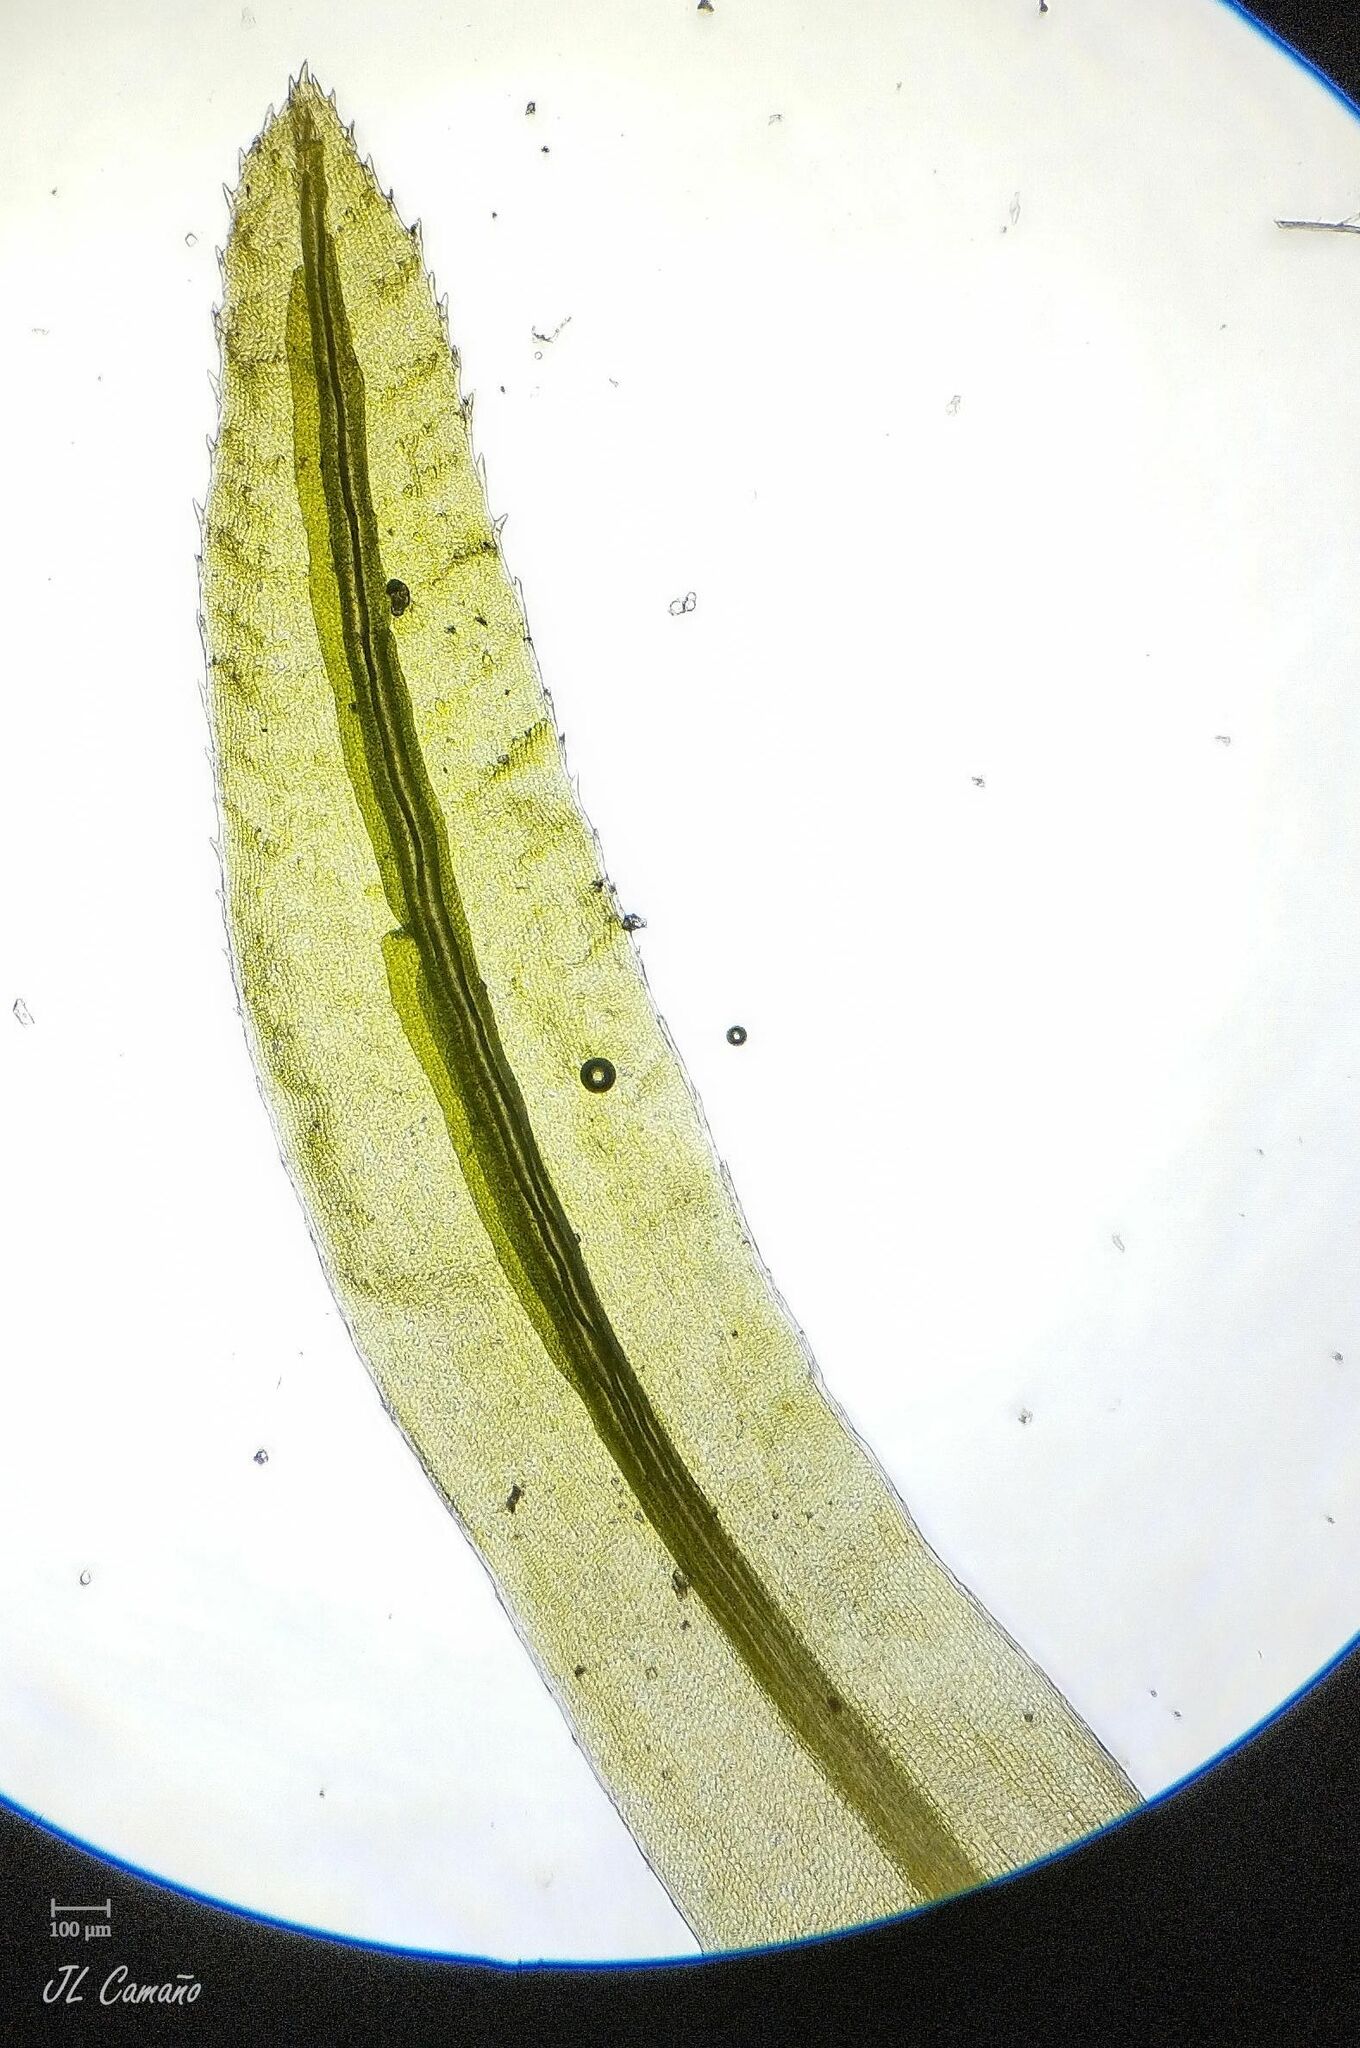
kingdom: Plantae
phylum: Bryophyta
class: Polytrichopsida
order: Polytrichales
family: Polytrichaceae
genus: Atrichum
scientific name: Atrichum angustatum
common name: Lesser smoothcap
